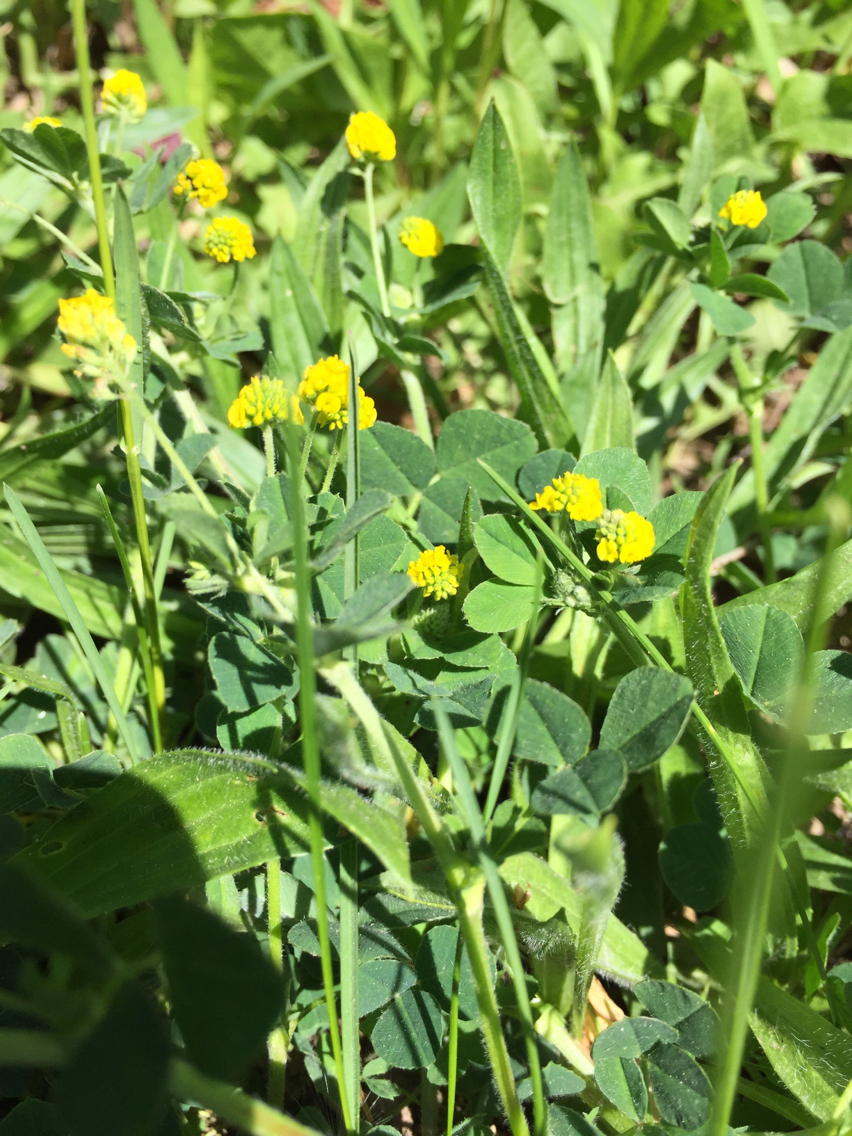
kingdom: Plantae
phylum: Tracheophyta
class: Magnoliopsida
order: Fabales
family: Fabaceae
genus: Medicago
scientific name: Medicago lupulina
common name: Black medick
